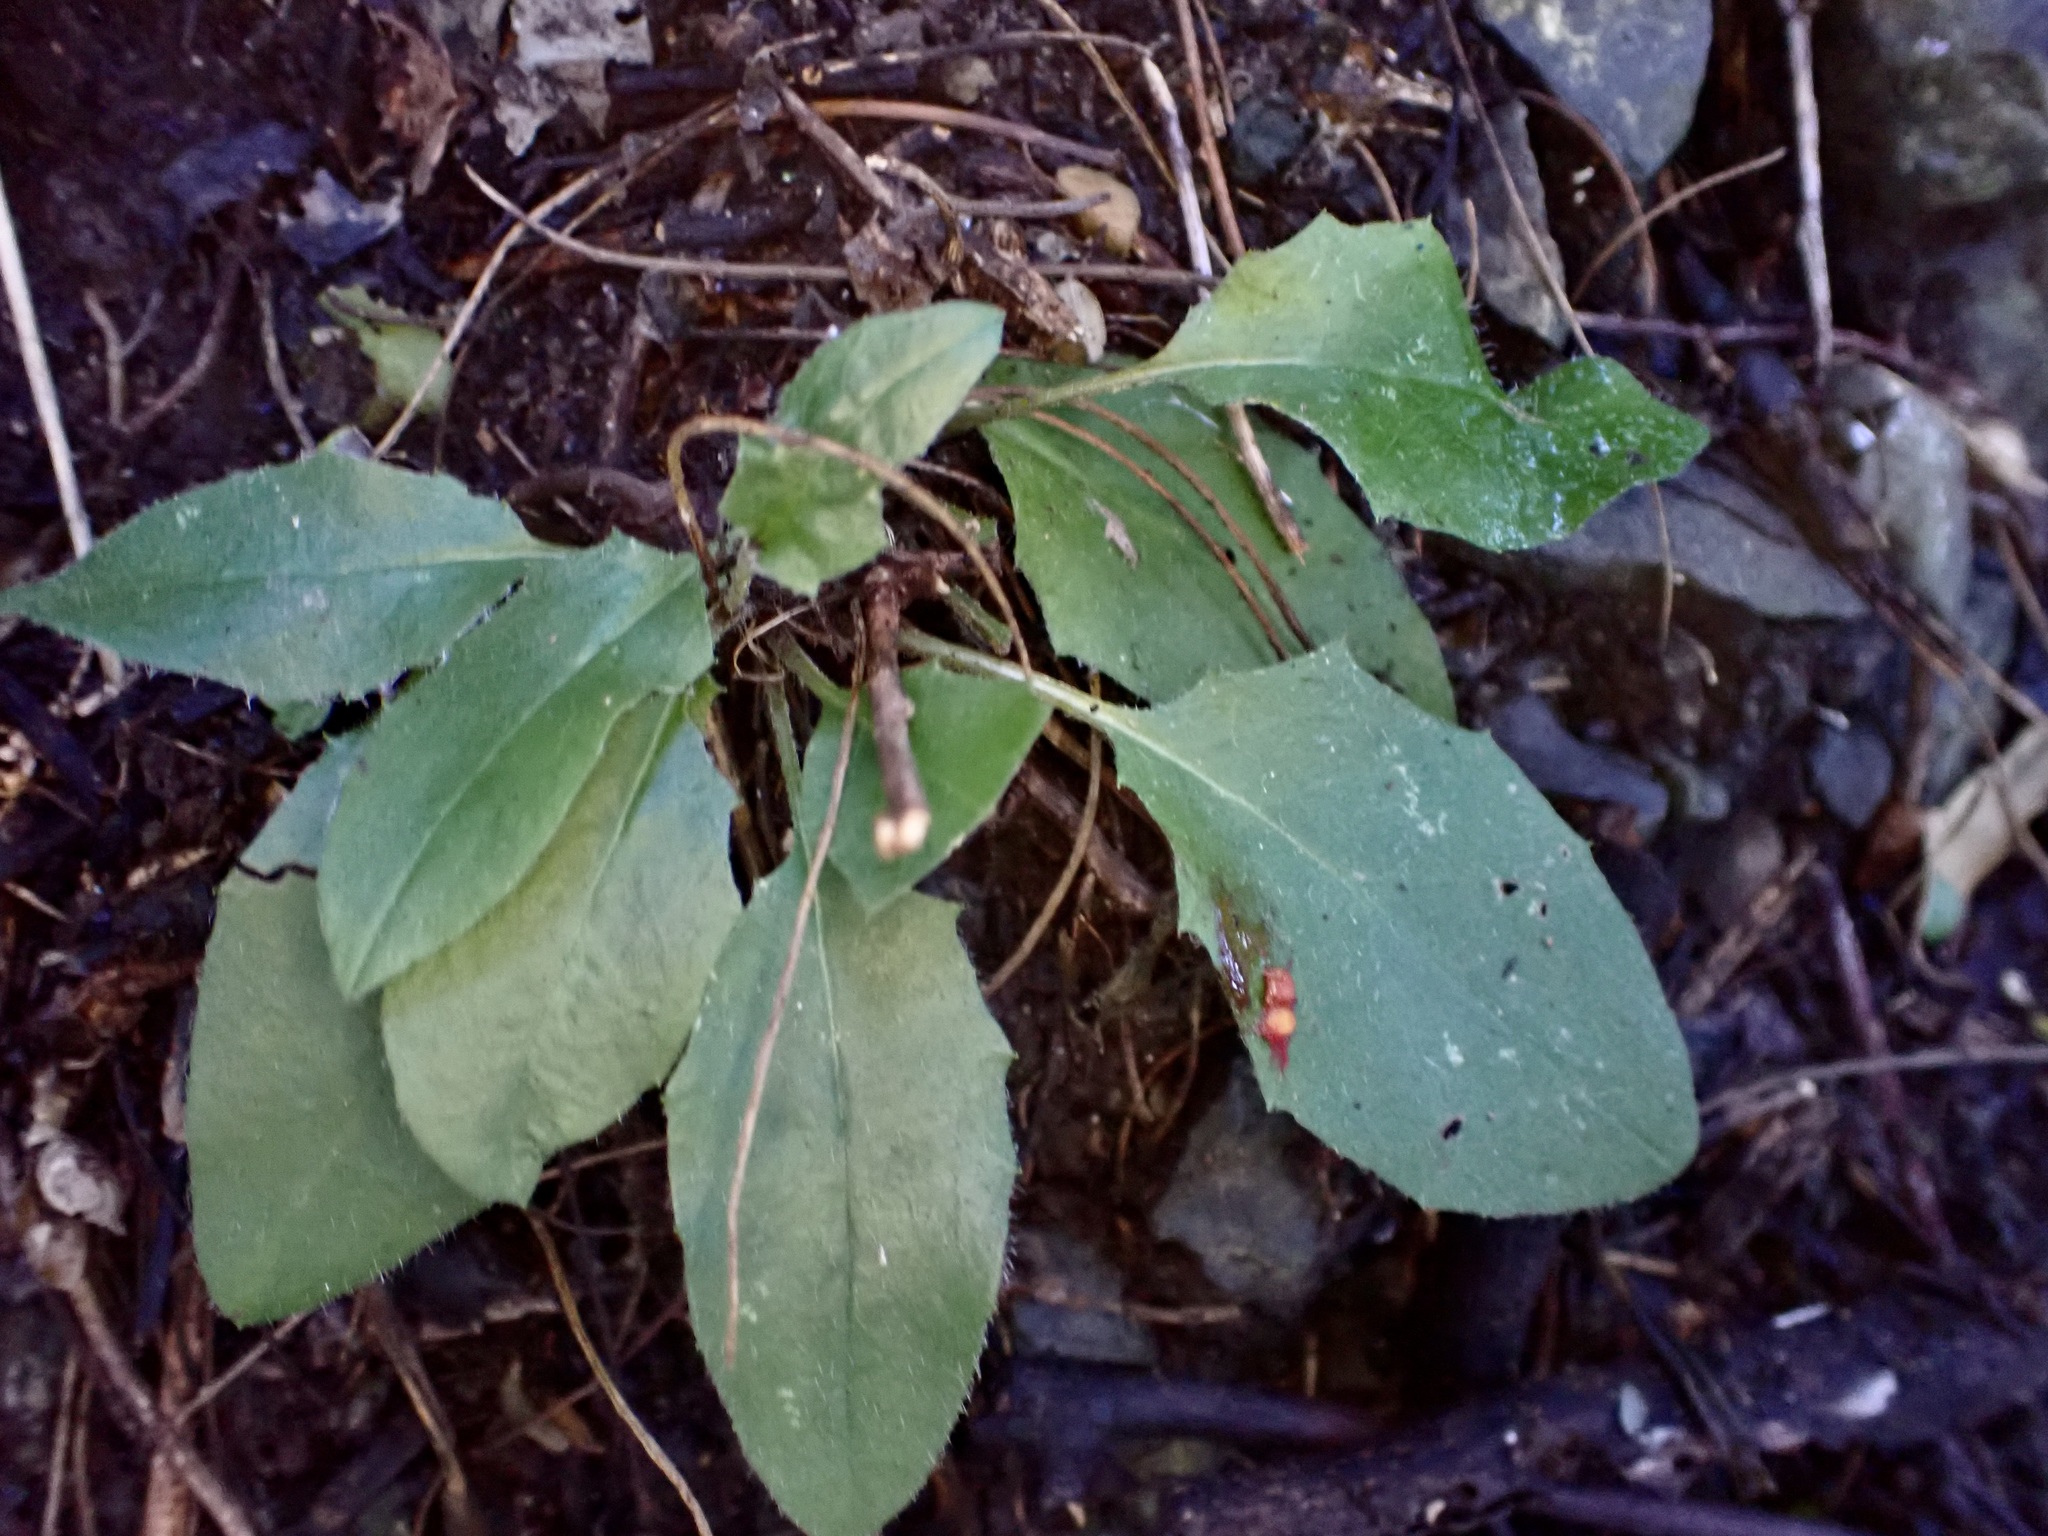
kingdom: Plantae
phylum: Tracheophyta
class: Magnoliopsida
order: Asterales
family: Asteraceae
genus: Hieracium
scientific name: Hieracium lepidulum
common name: Irregular-toothed hawkweed
